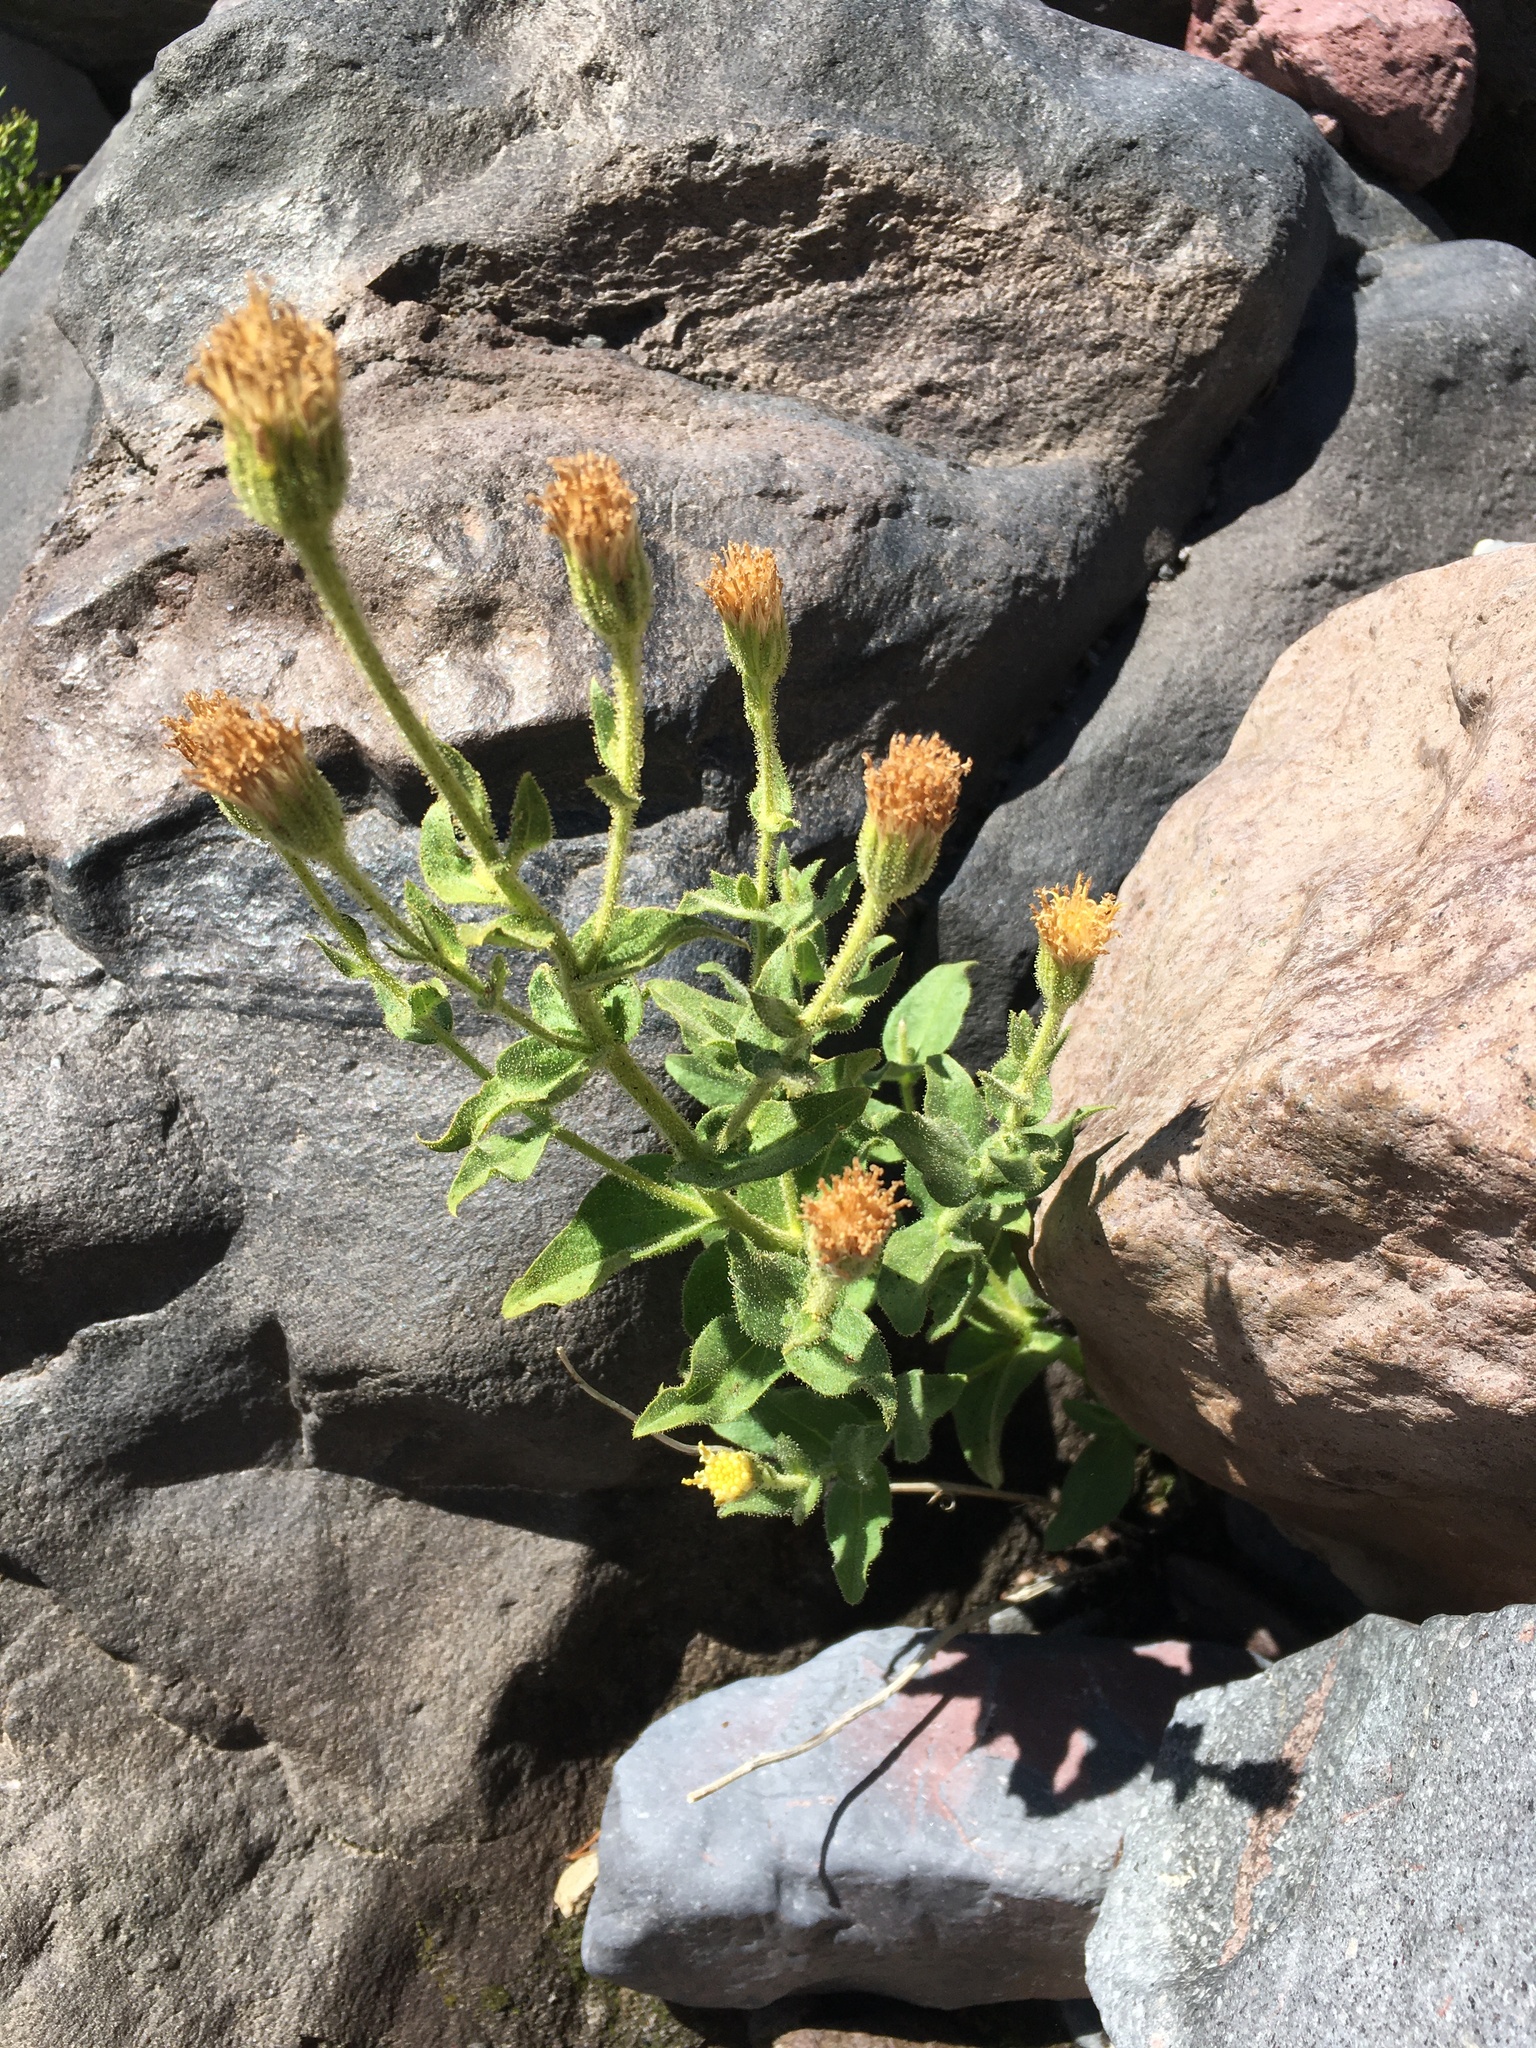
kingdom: Plantae
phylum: Tracheophyta
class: Magnoliopsida
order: Asterales
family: Asteraceae
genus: Arnica
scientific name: Arnica viscosa
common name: Mt. shasta arnica
